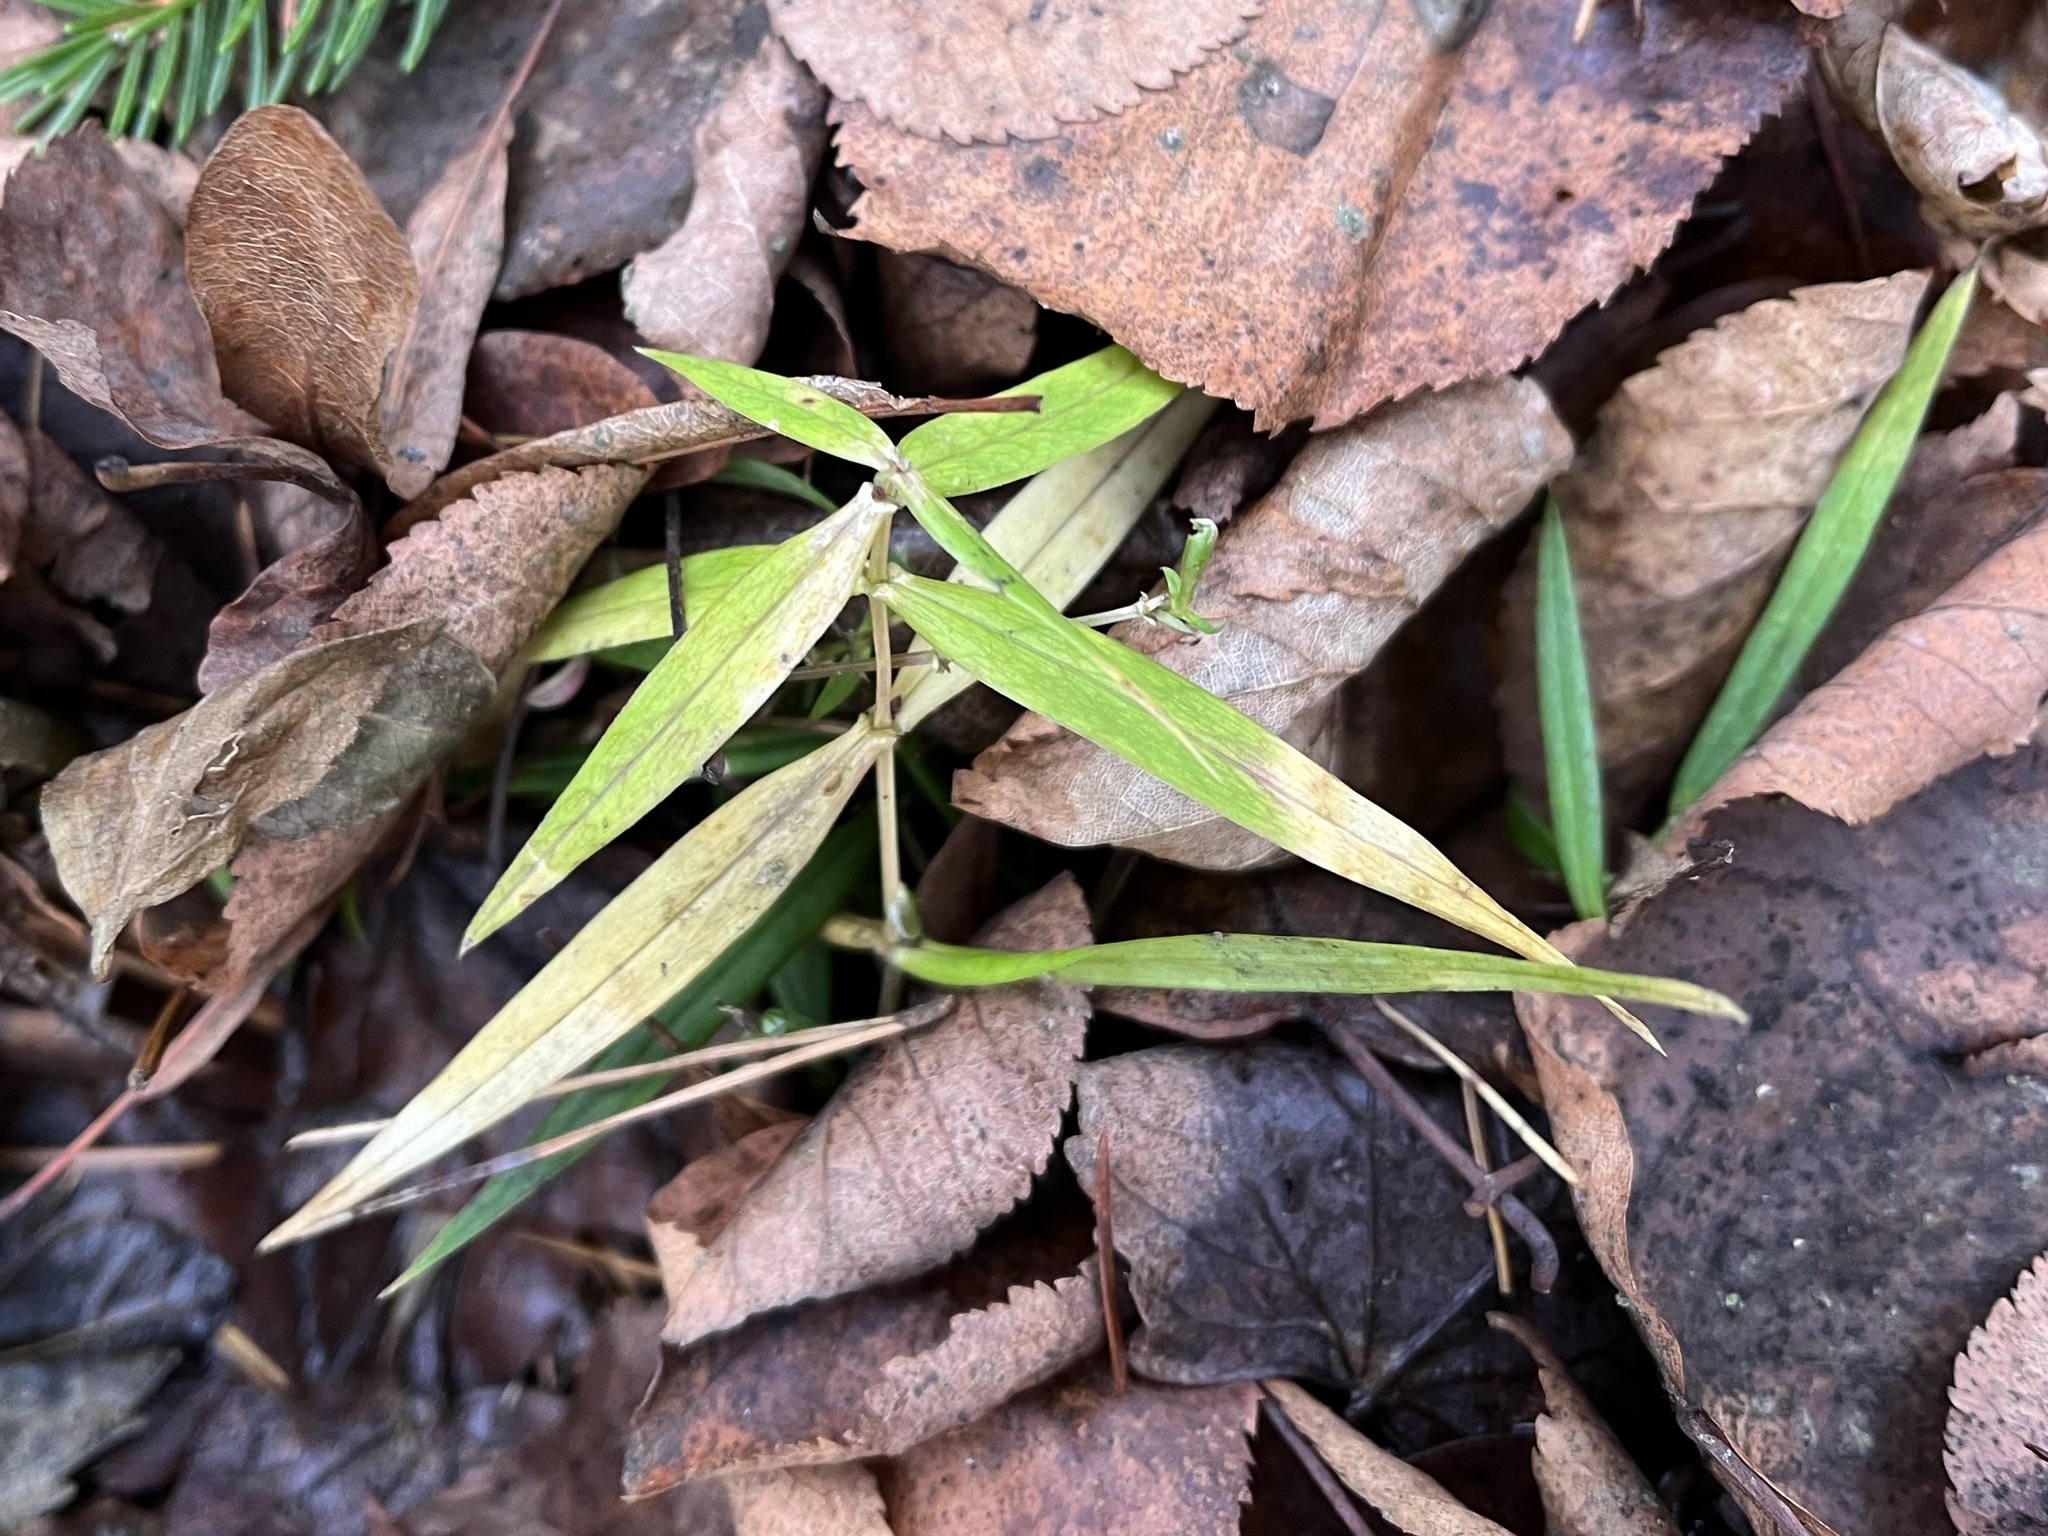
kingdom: Plantae
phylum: Tracheophyta
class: Magnoliopsida
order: Caryophyllales
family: Caryophyllaceae
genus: Rabelera
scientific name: Rabelera holostea
